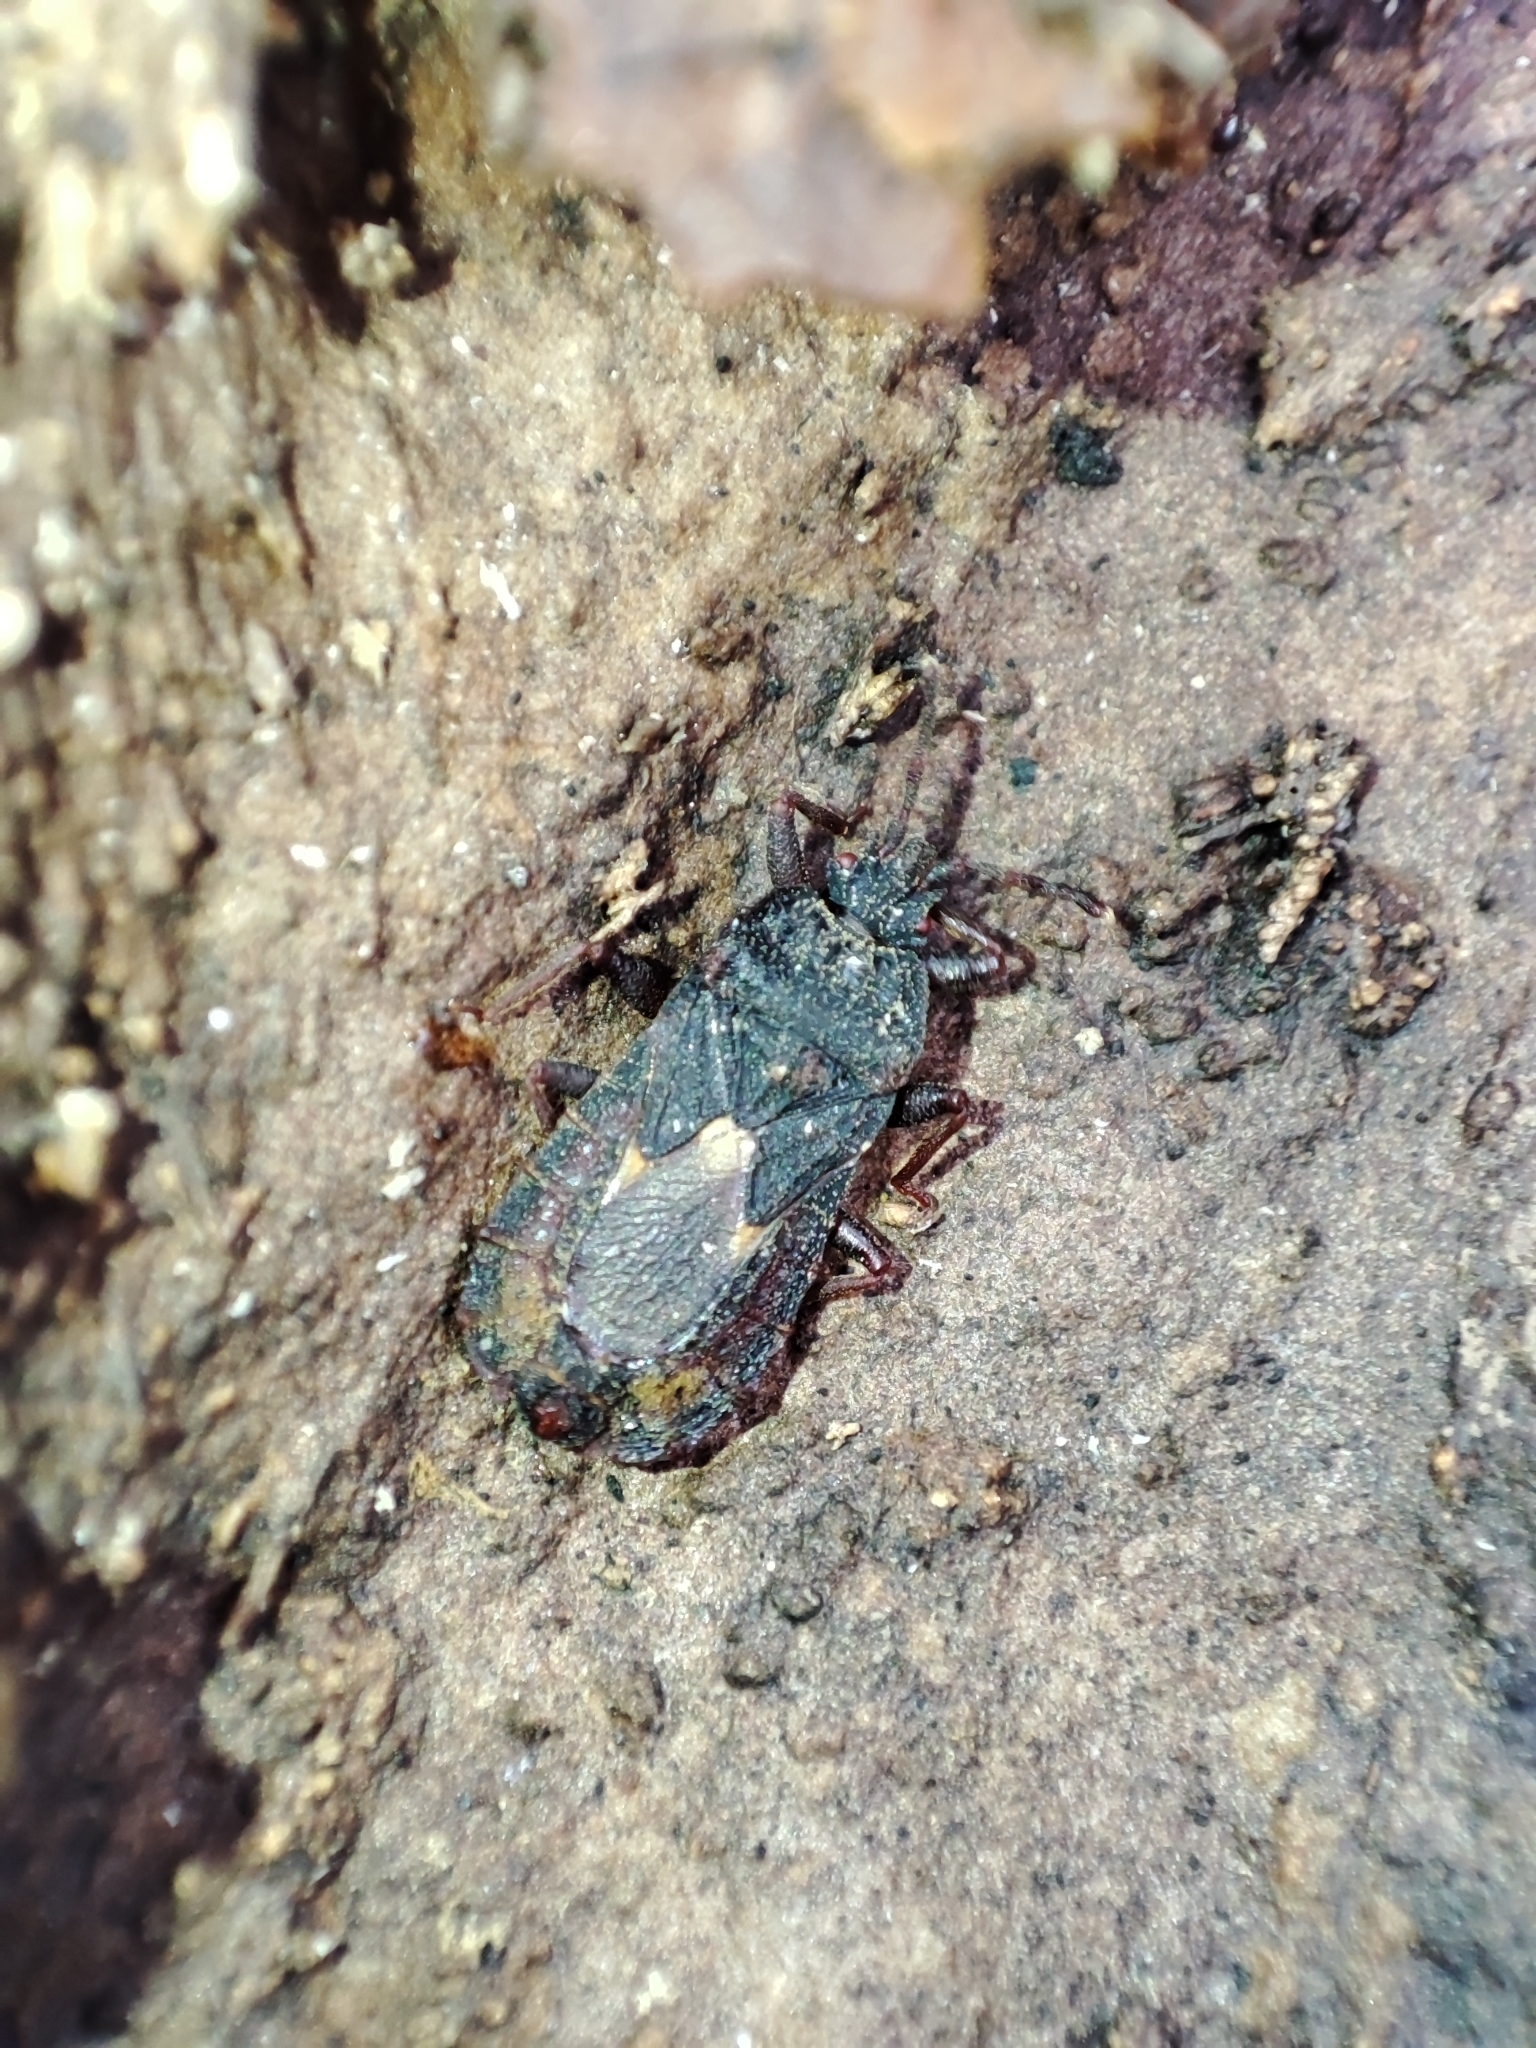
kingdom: Animalia
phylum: Arthropoda
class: Insecta
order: Hemiptera
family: Aradidae
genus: Mezira
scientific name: Mezira tremulae
